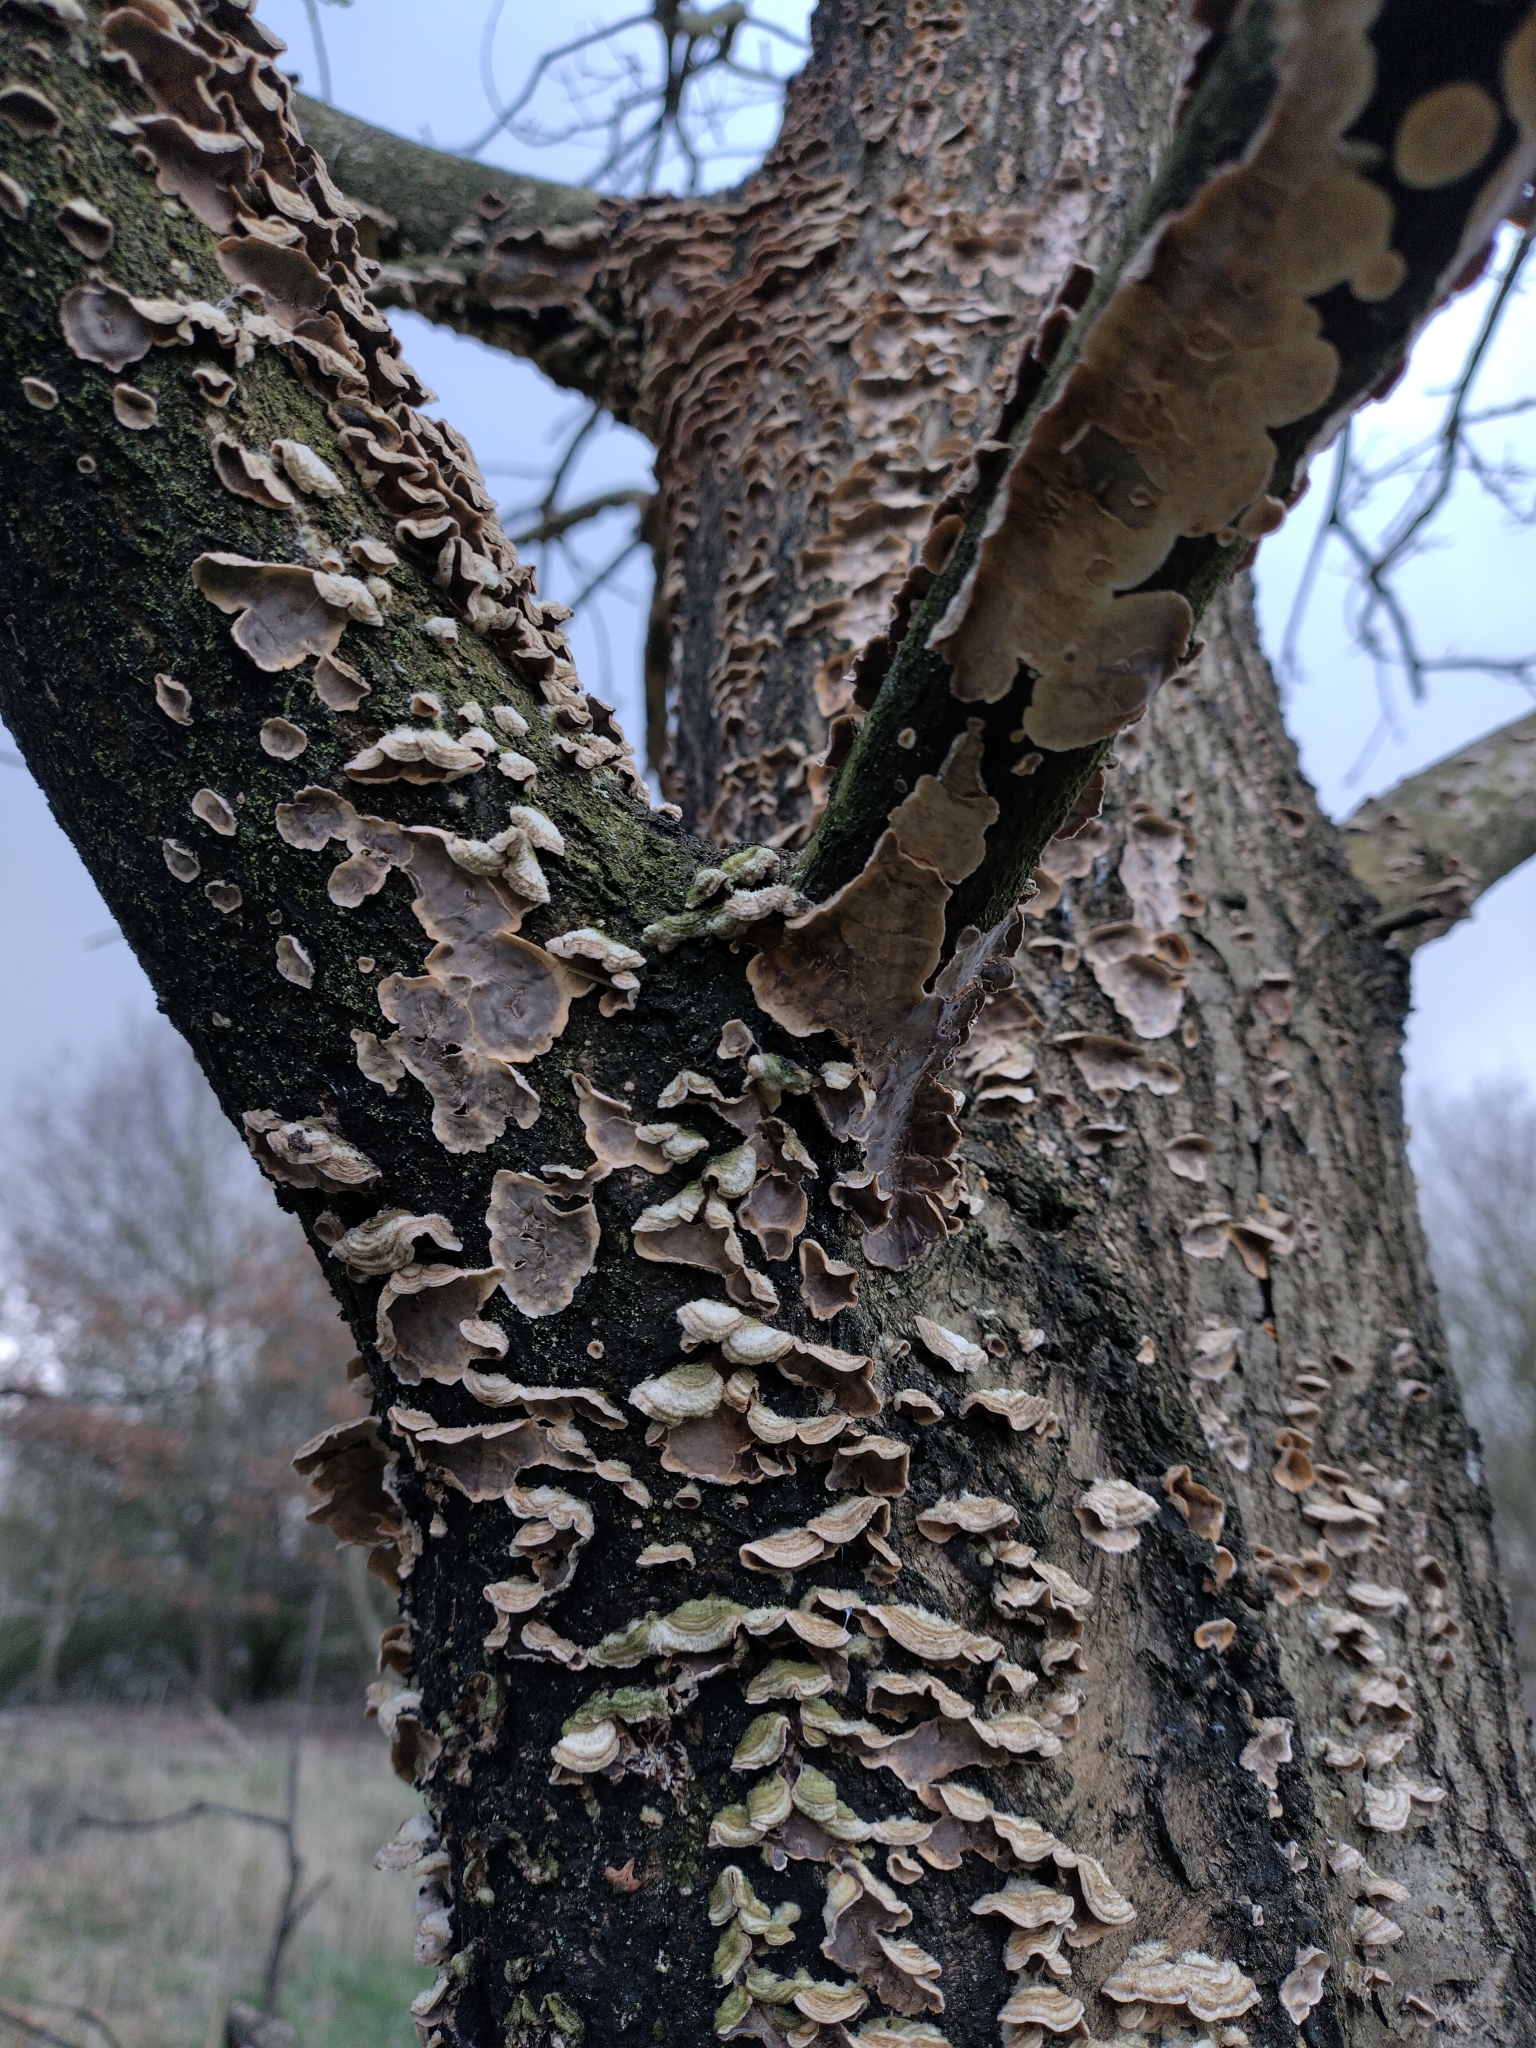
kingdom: Fungi
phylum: Basidiomycota
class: Agaricomycetes
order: Agaricales
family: Cyphellaceae
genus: Chondrostereum
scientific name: Chondrostereum purpureum
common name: Silver leaf disease
